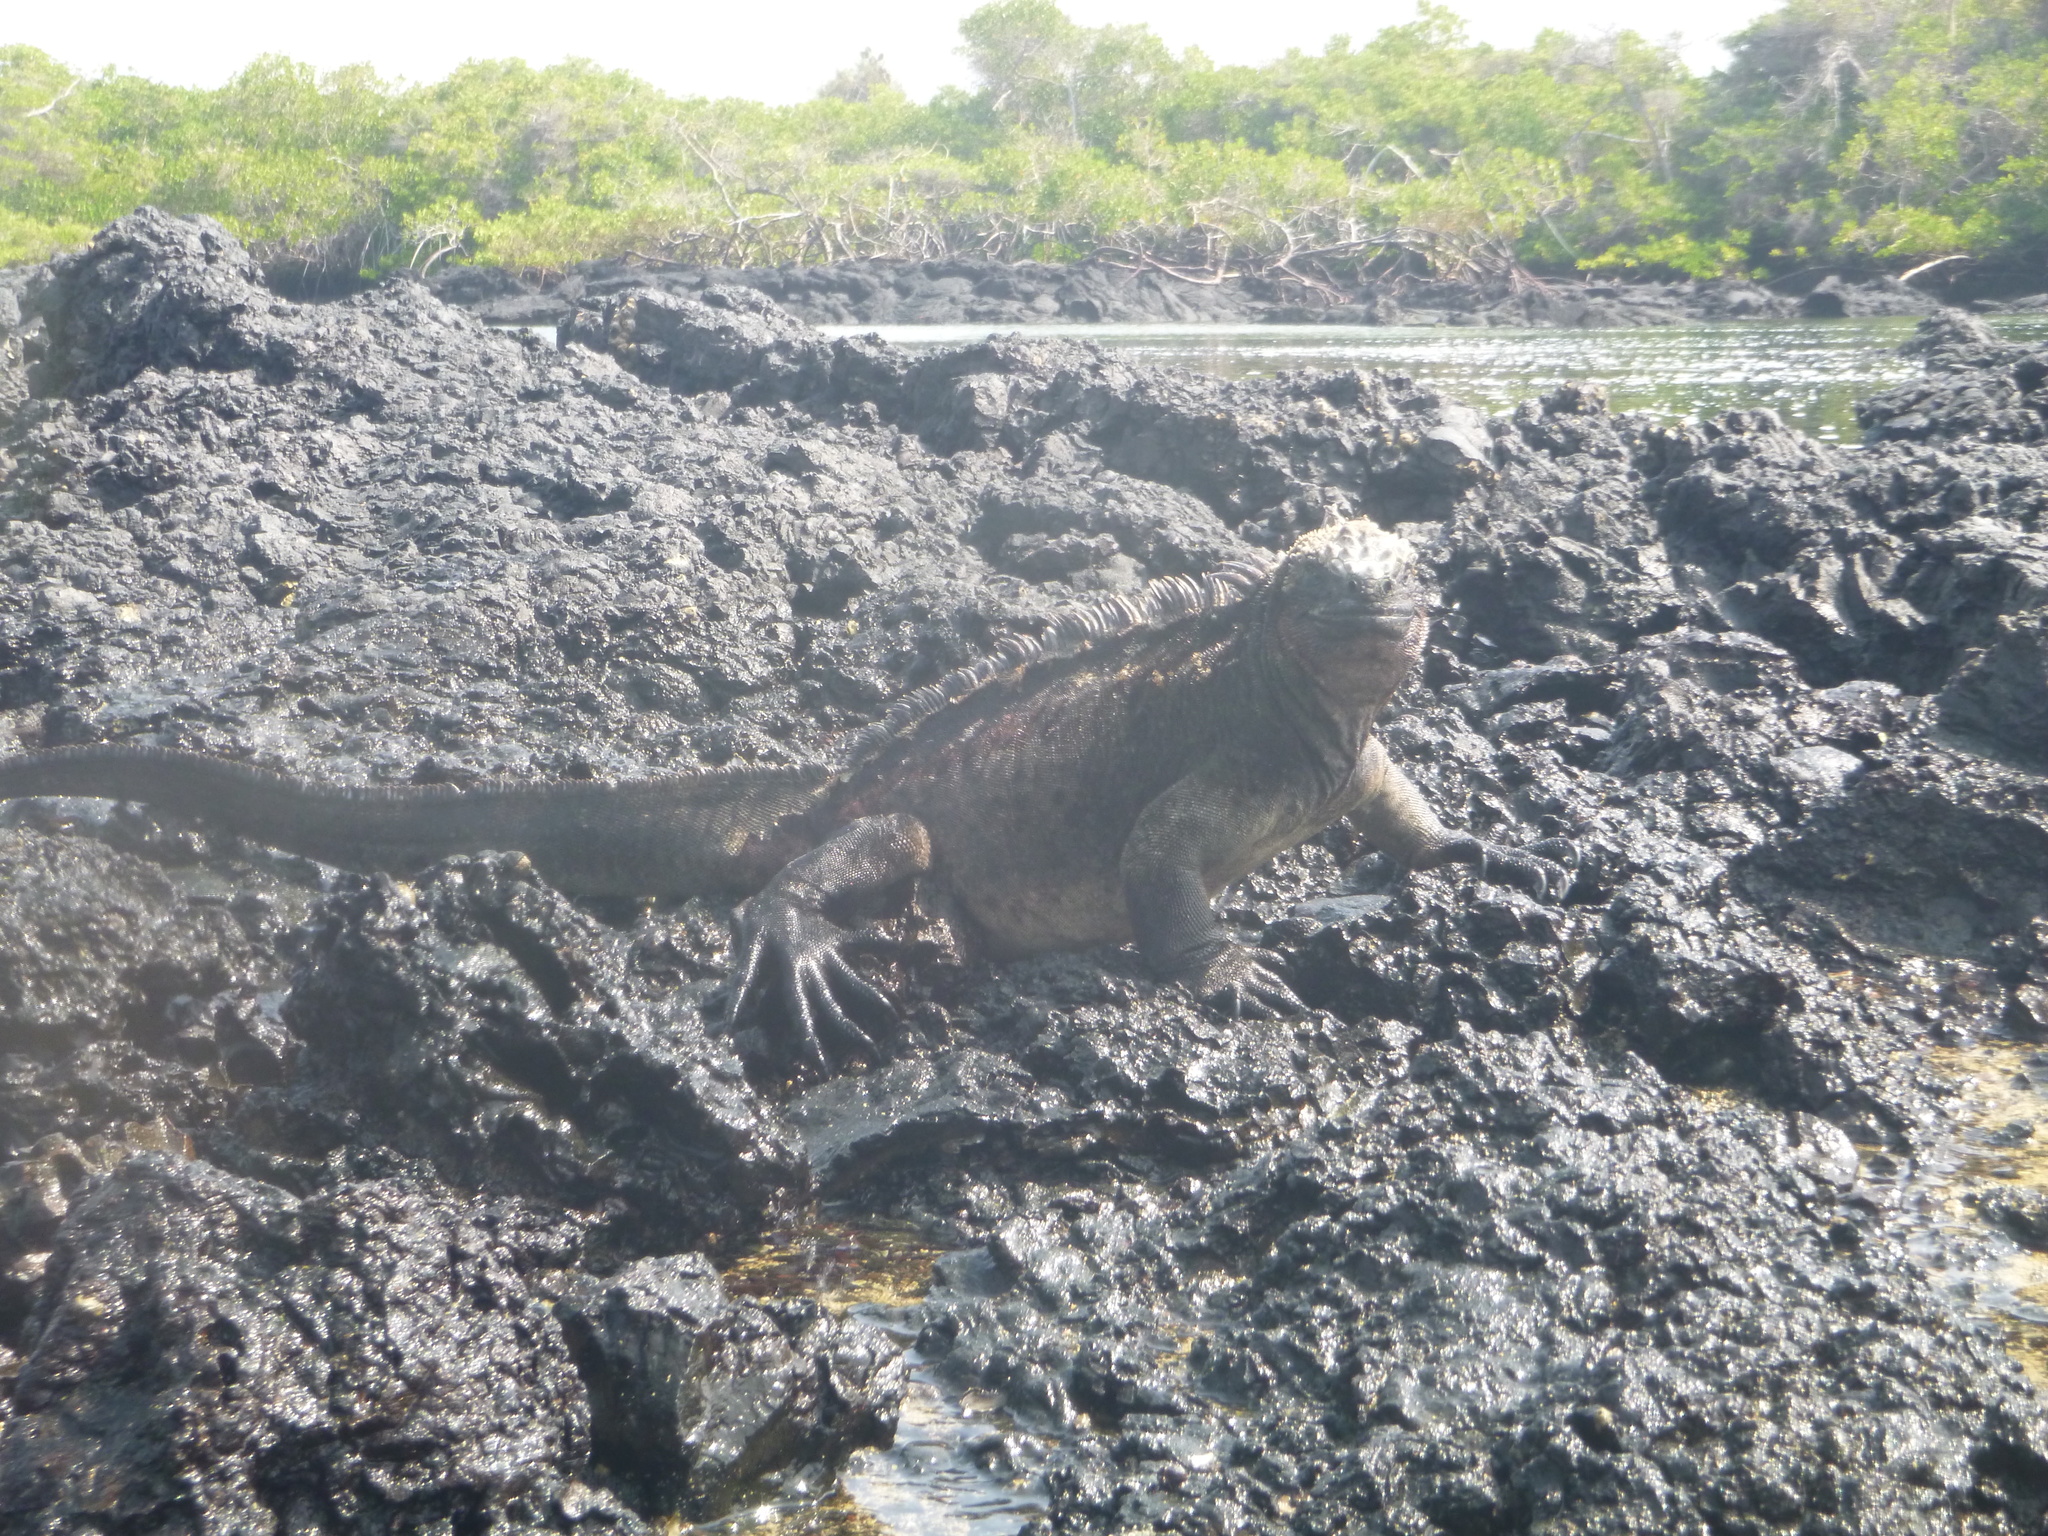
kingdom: Animalia
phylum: Chordata
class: Squamata
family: Iguanidae
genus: Amblyrhynchus
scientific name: Amblyrhynchus cristatus
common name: Marine iguana
